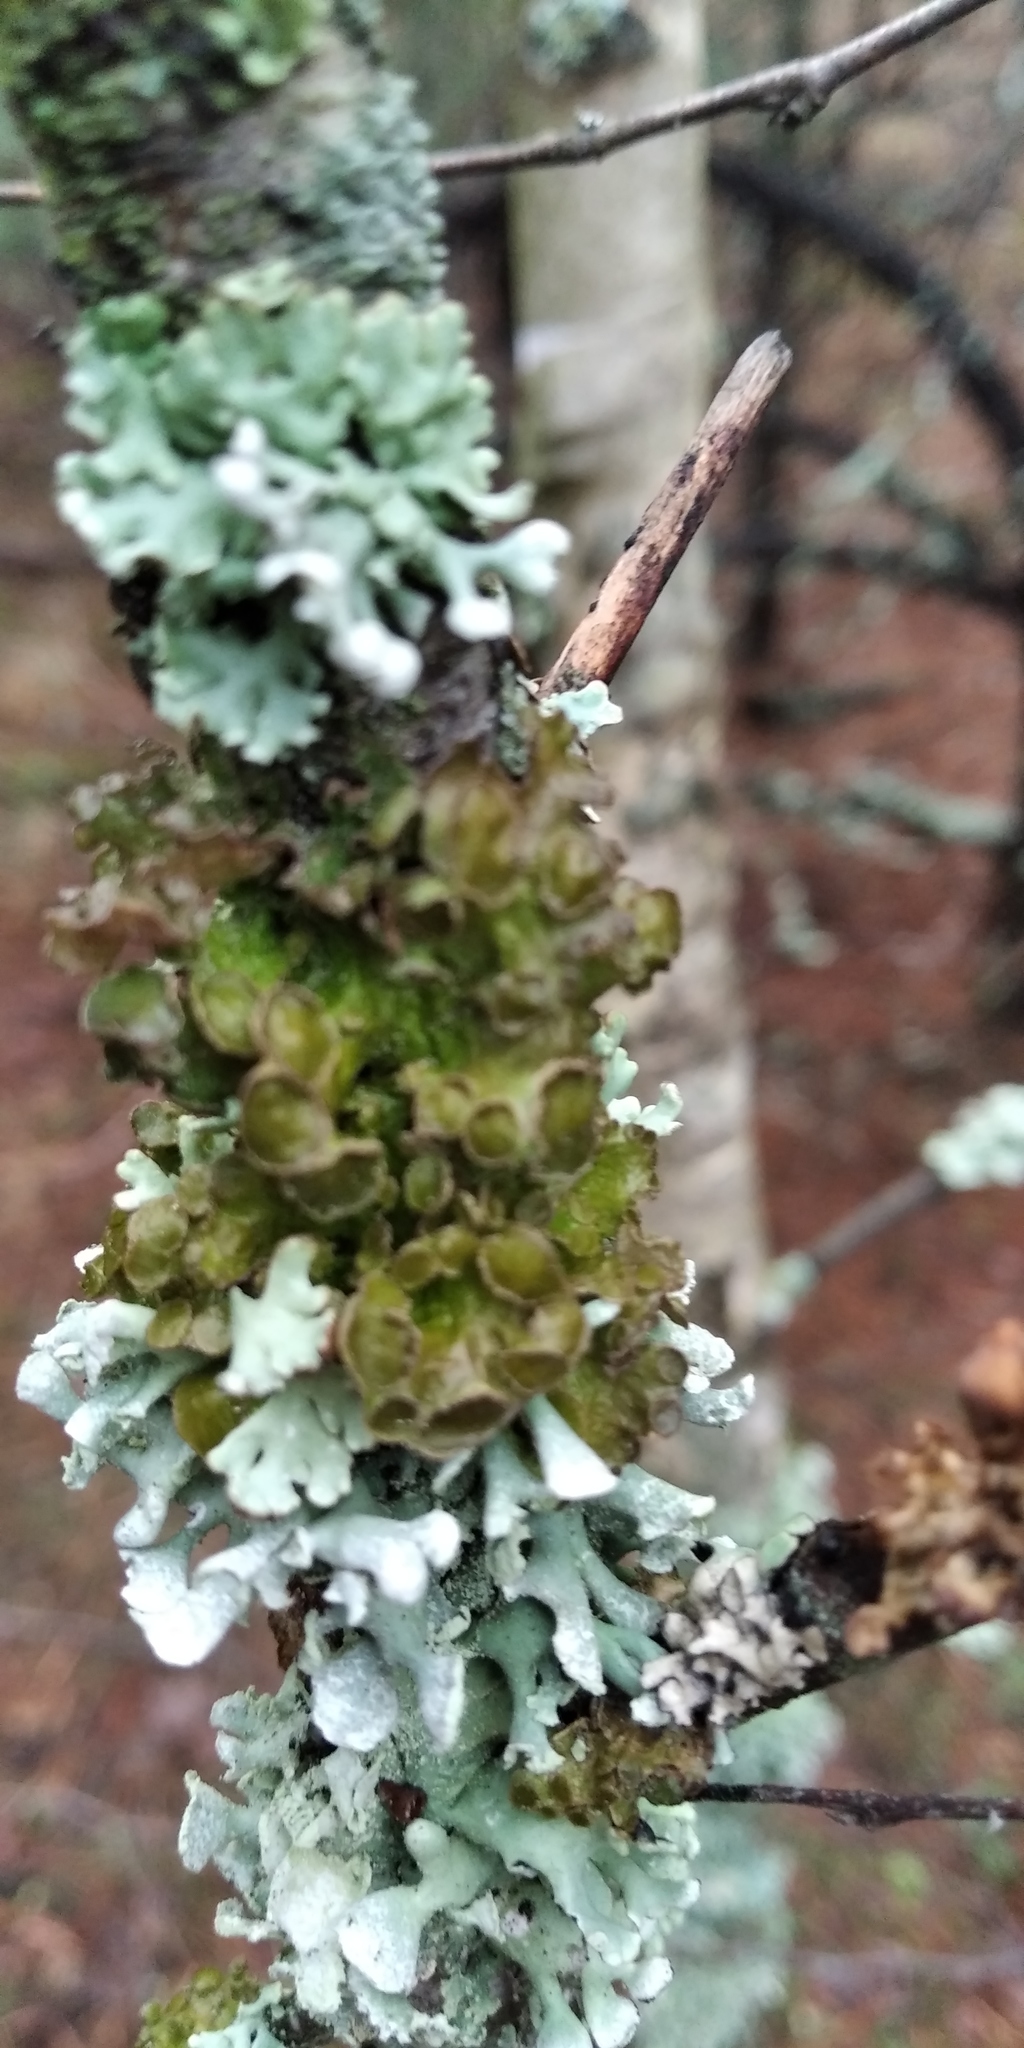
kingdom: Fungi
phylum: Ascomycota
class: Lecanoromycetes
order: Lecanorales
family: Parmeliaceae
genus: Cetraria
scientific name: Cetraria sepincola
